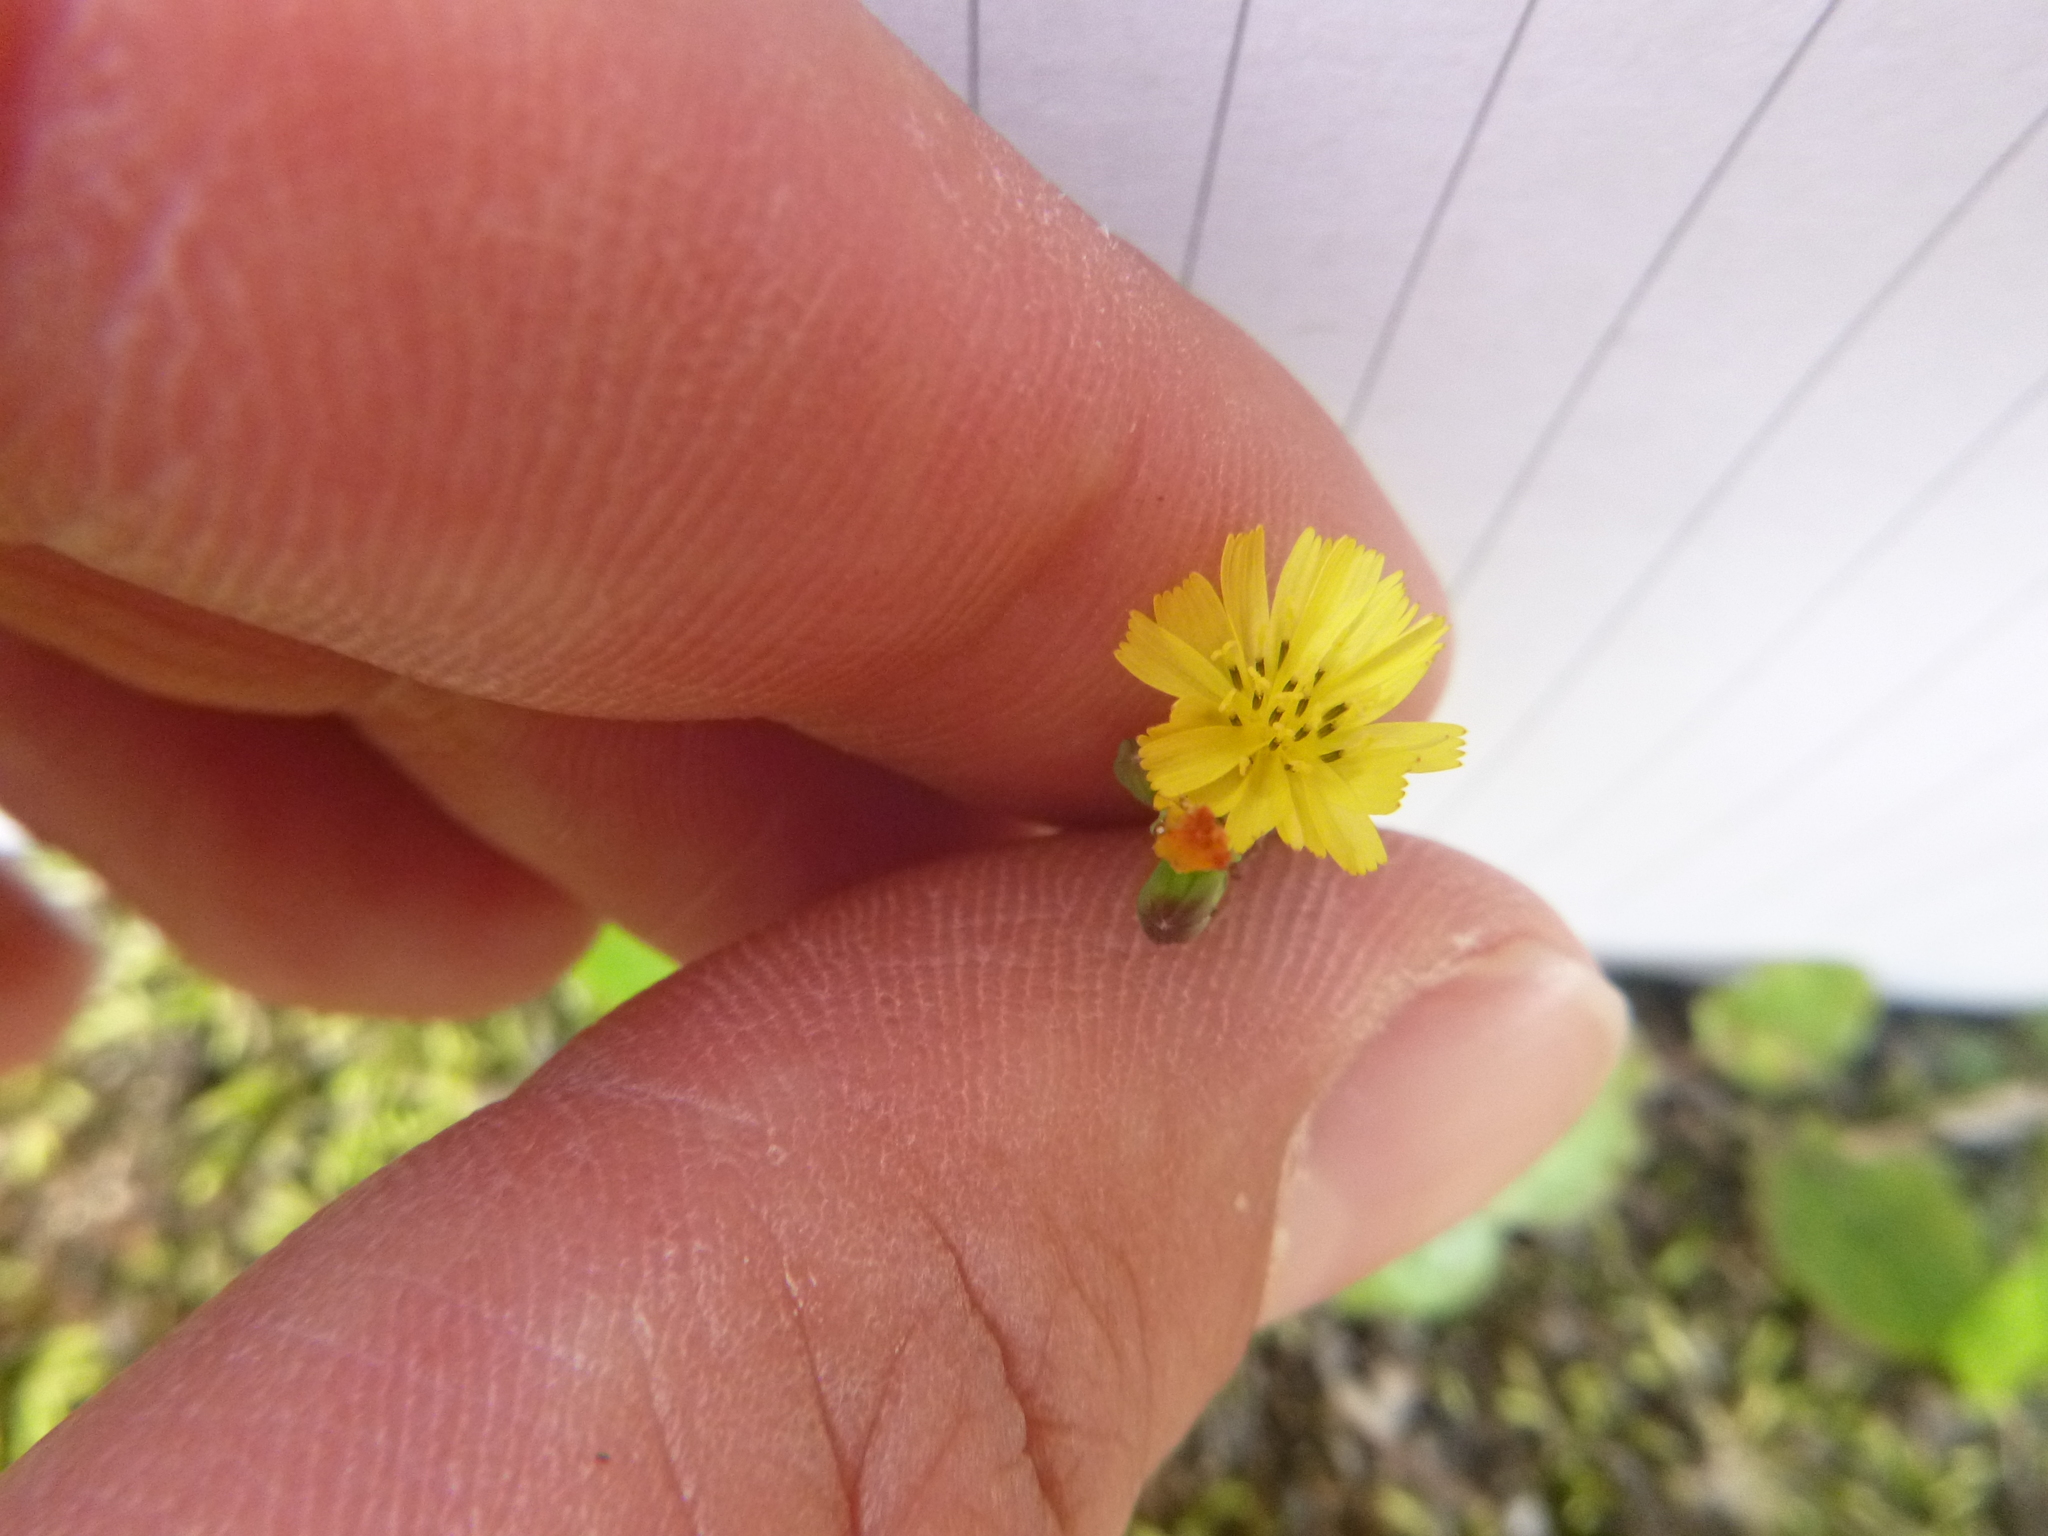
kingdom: Plantae
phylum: Tracheophyta
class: Magnoliopsida
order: Asterales
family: Asteraceae
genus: Youngia
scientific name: Youngia japonica
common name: Oriental false hawksbeard
